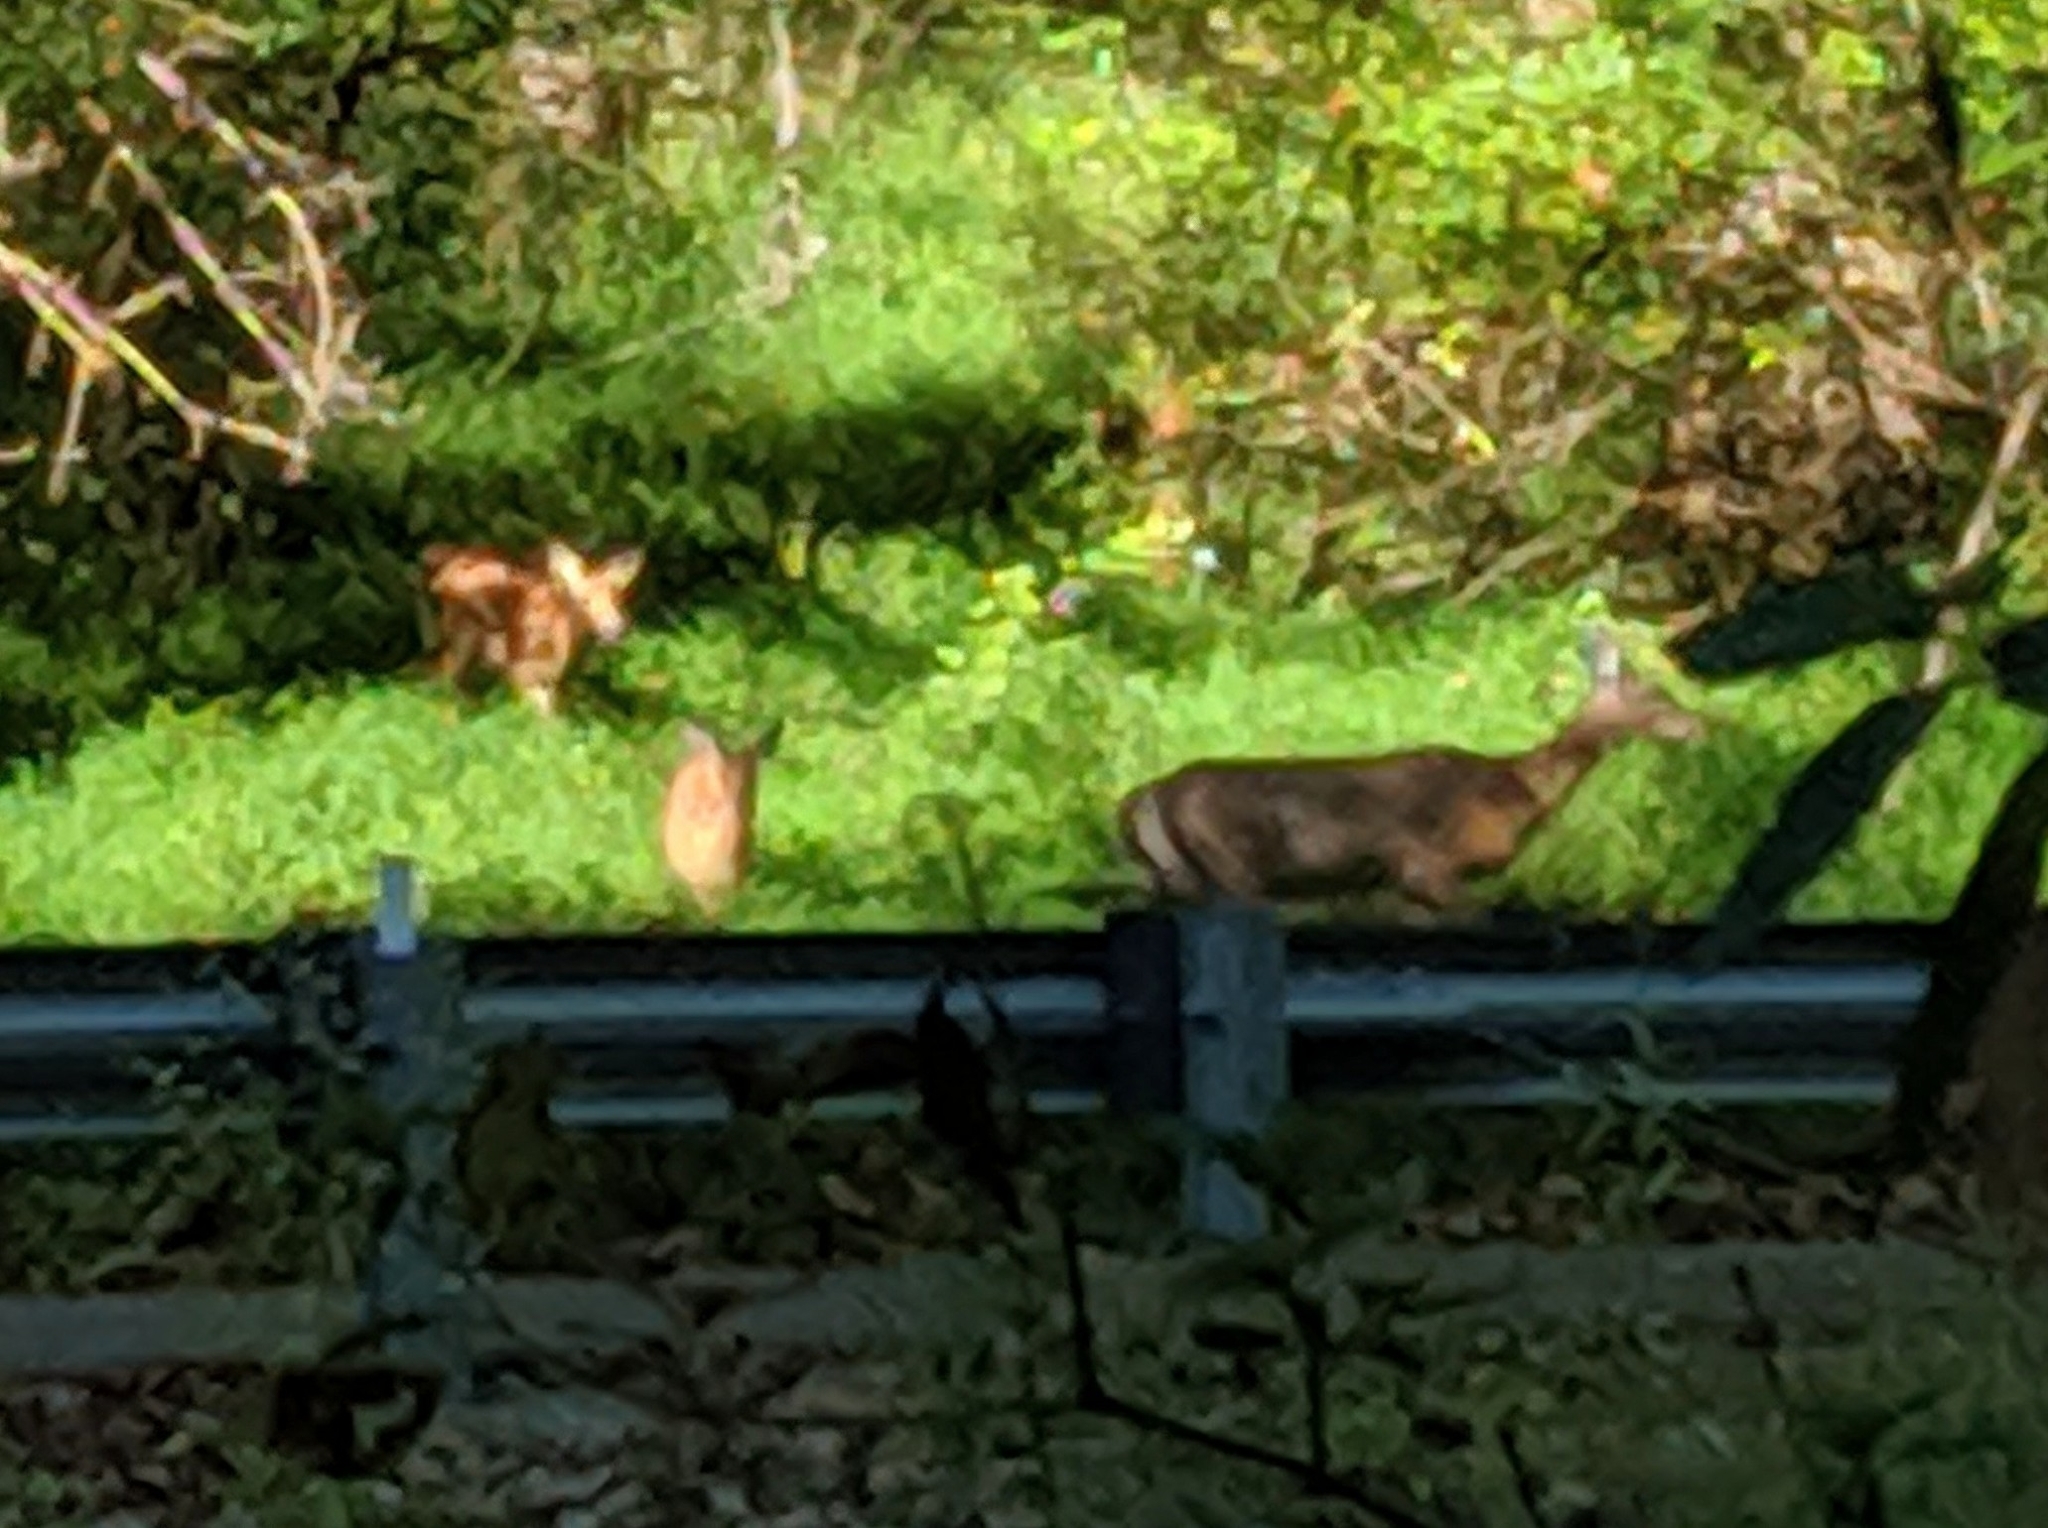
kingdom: Animalia
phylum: Chordata
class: Mammalia
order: Artiodactyla
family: Cervidae
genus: Odocoileus
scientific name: Odocoileus virginianus
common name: White-tailed deer
